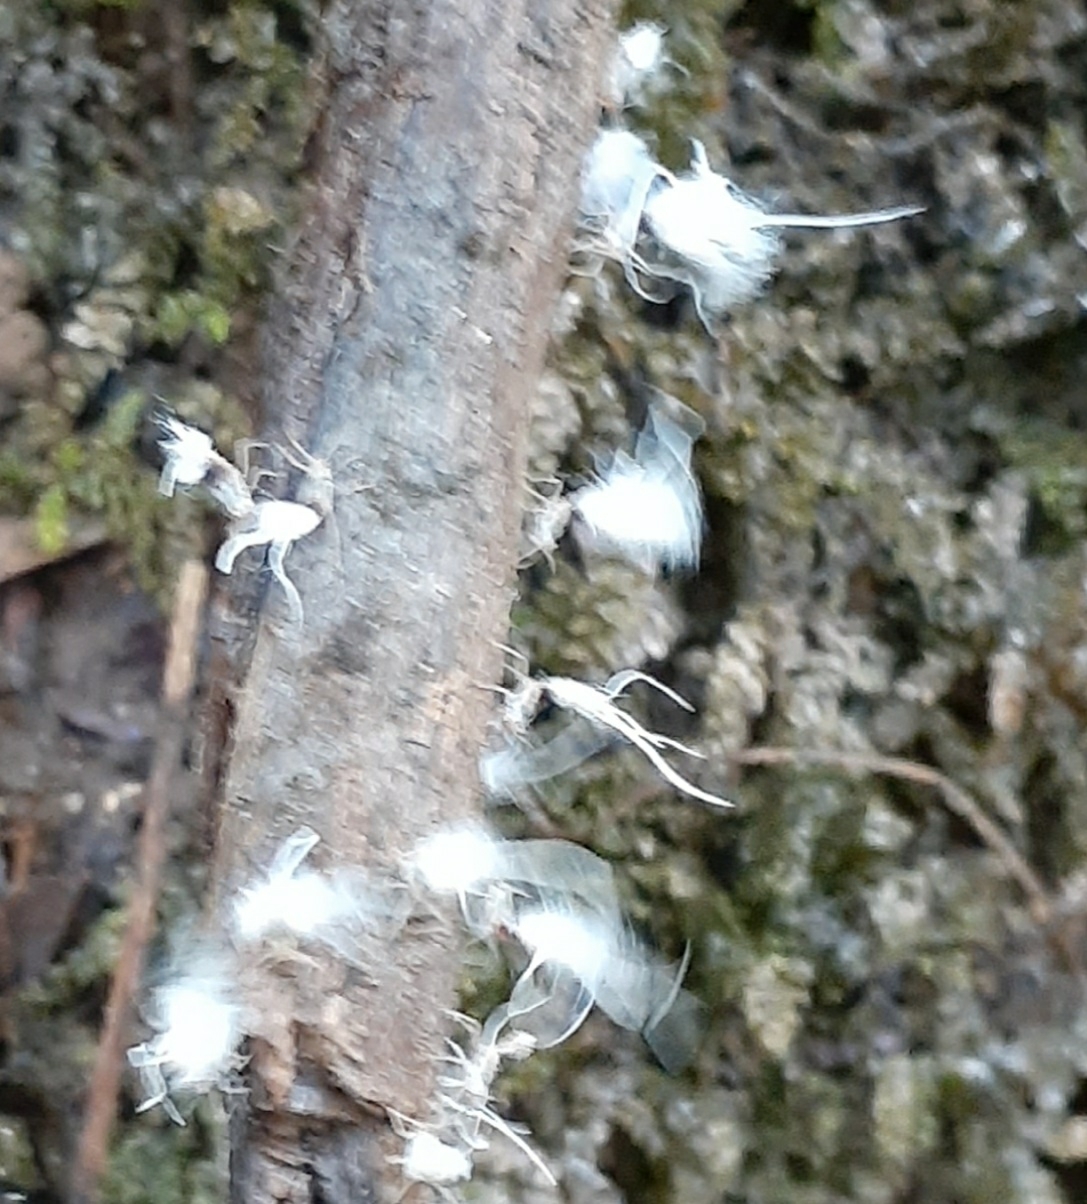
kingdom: Animalia
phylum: Arthropoda
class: Insecta
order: Hemiptera
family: Aphididae
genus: Grylloprociphilus
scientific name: Grylloprociphilus imbricator
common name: Beech blight aphid
